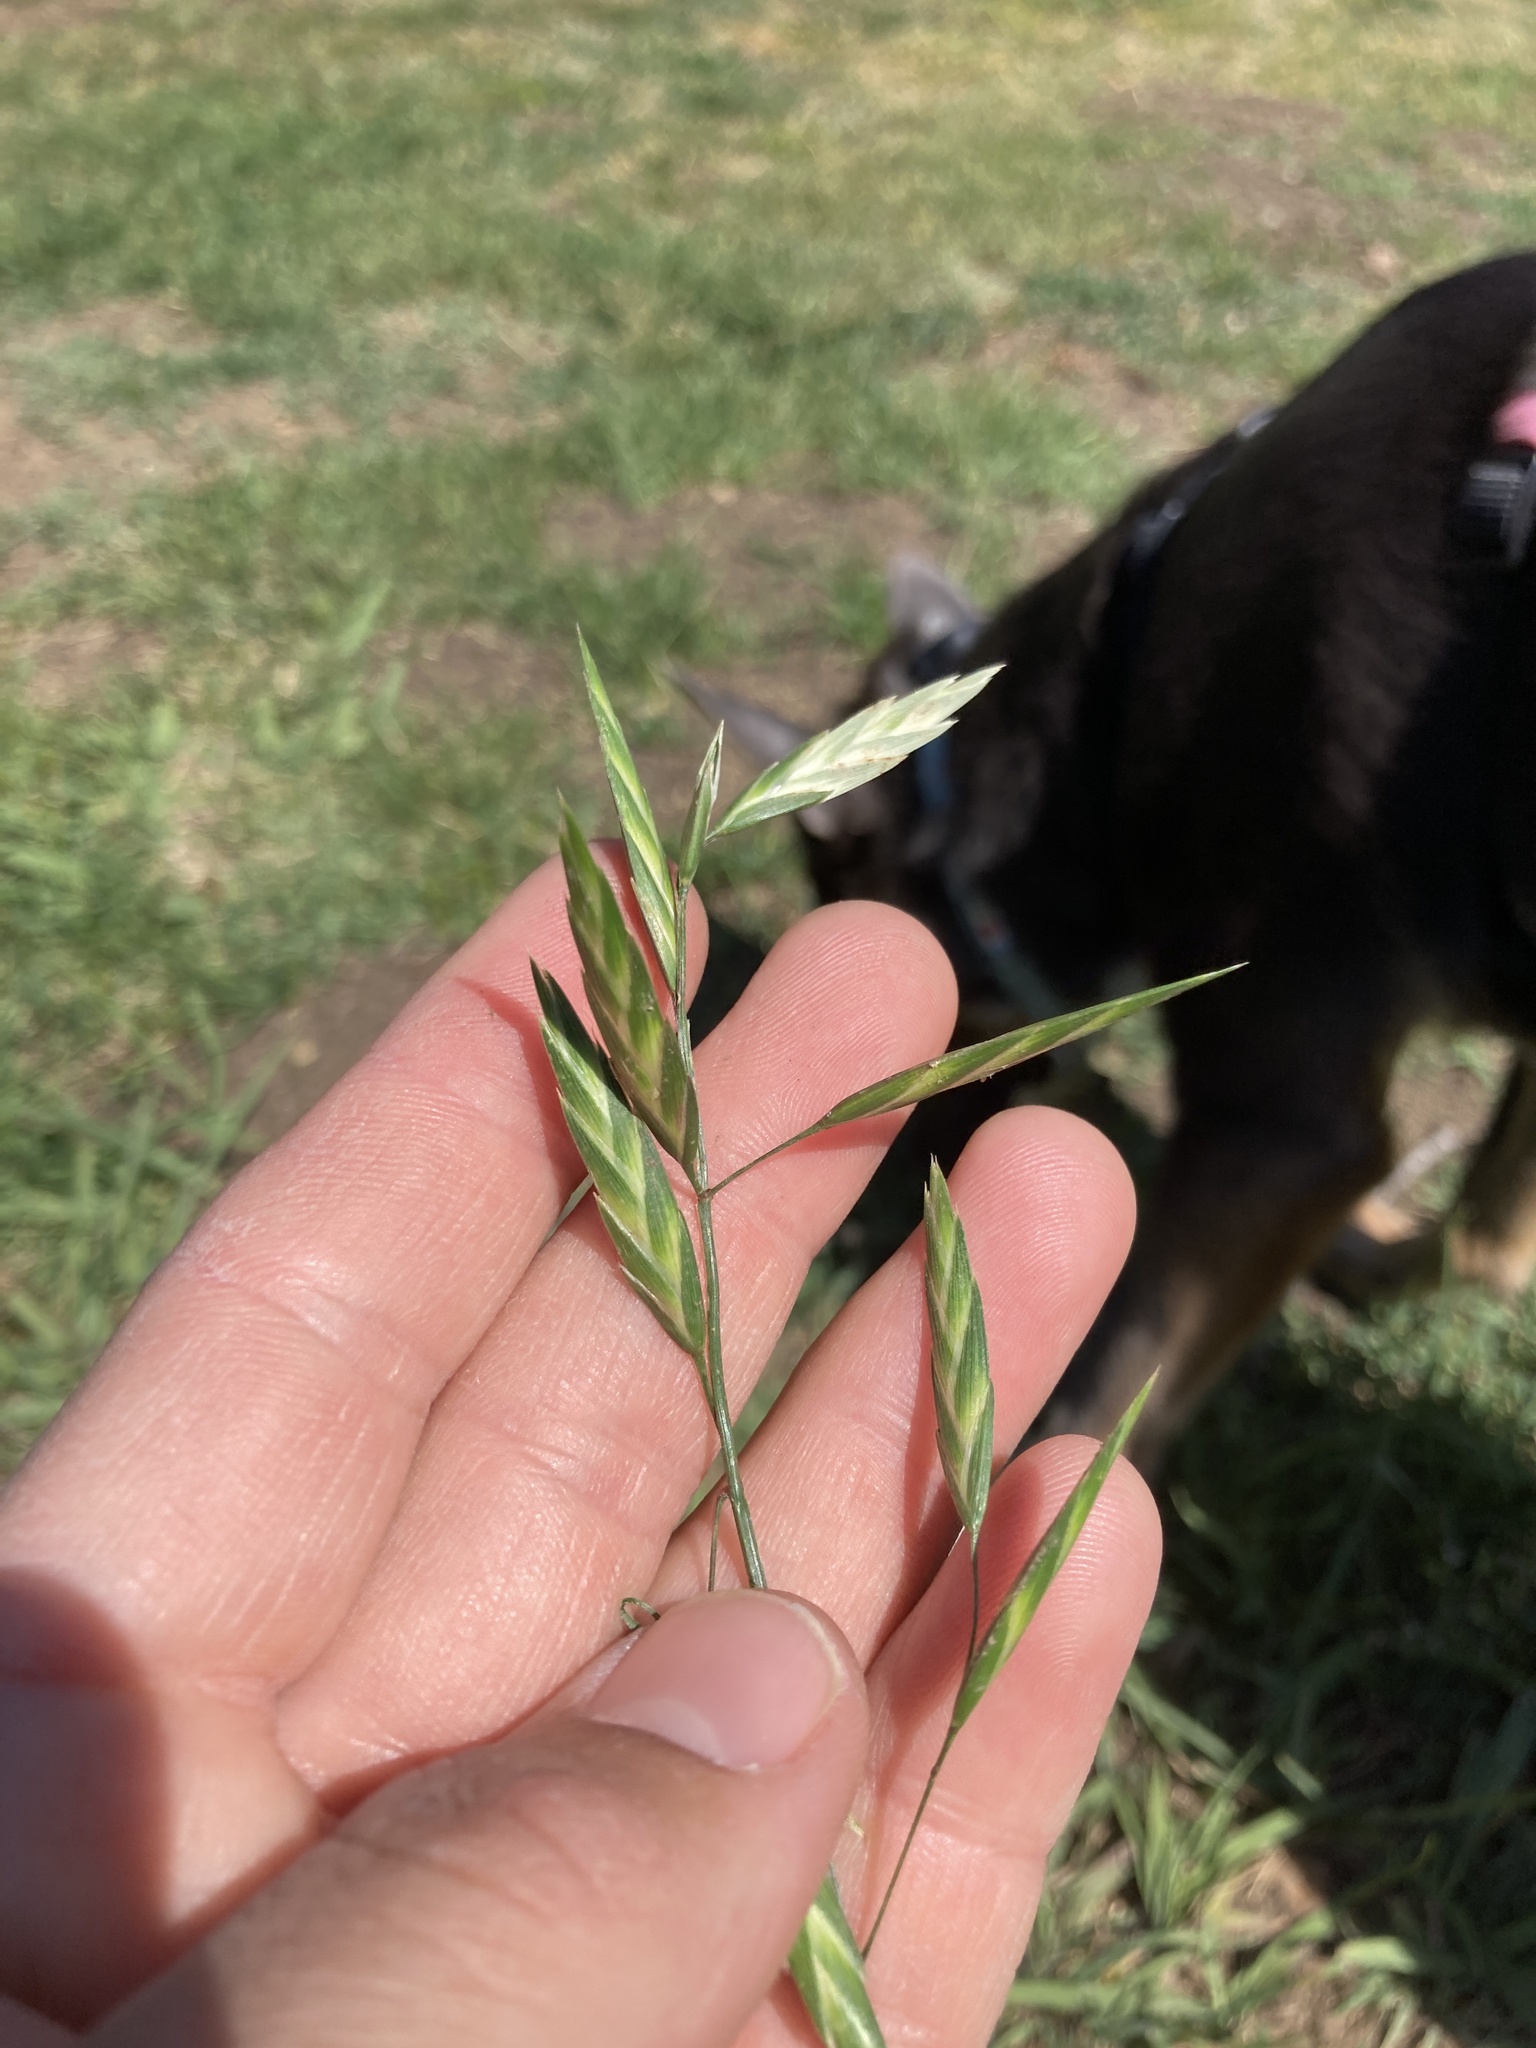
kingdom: Plantae
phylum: Tracheophyta
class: Liliopsida
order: Poales
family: Poaceae
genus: Bromus
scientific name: Bromus catharticus
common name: Rescuegrass
